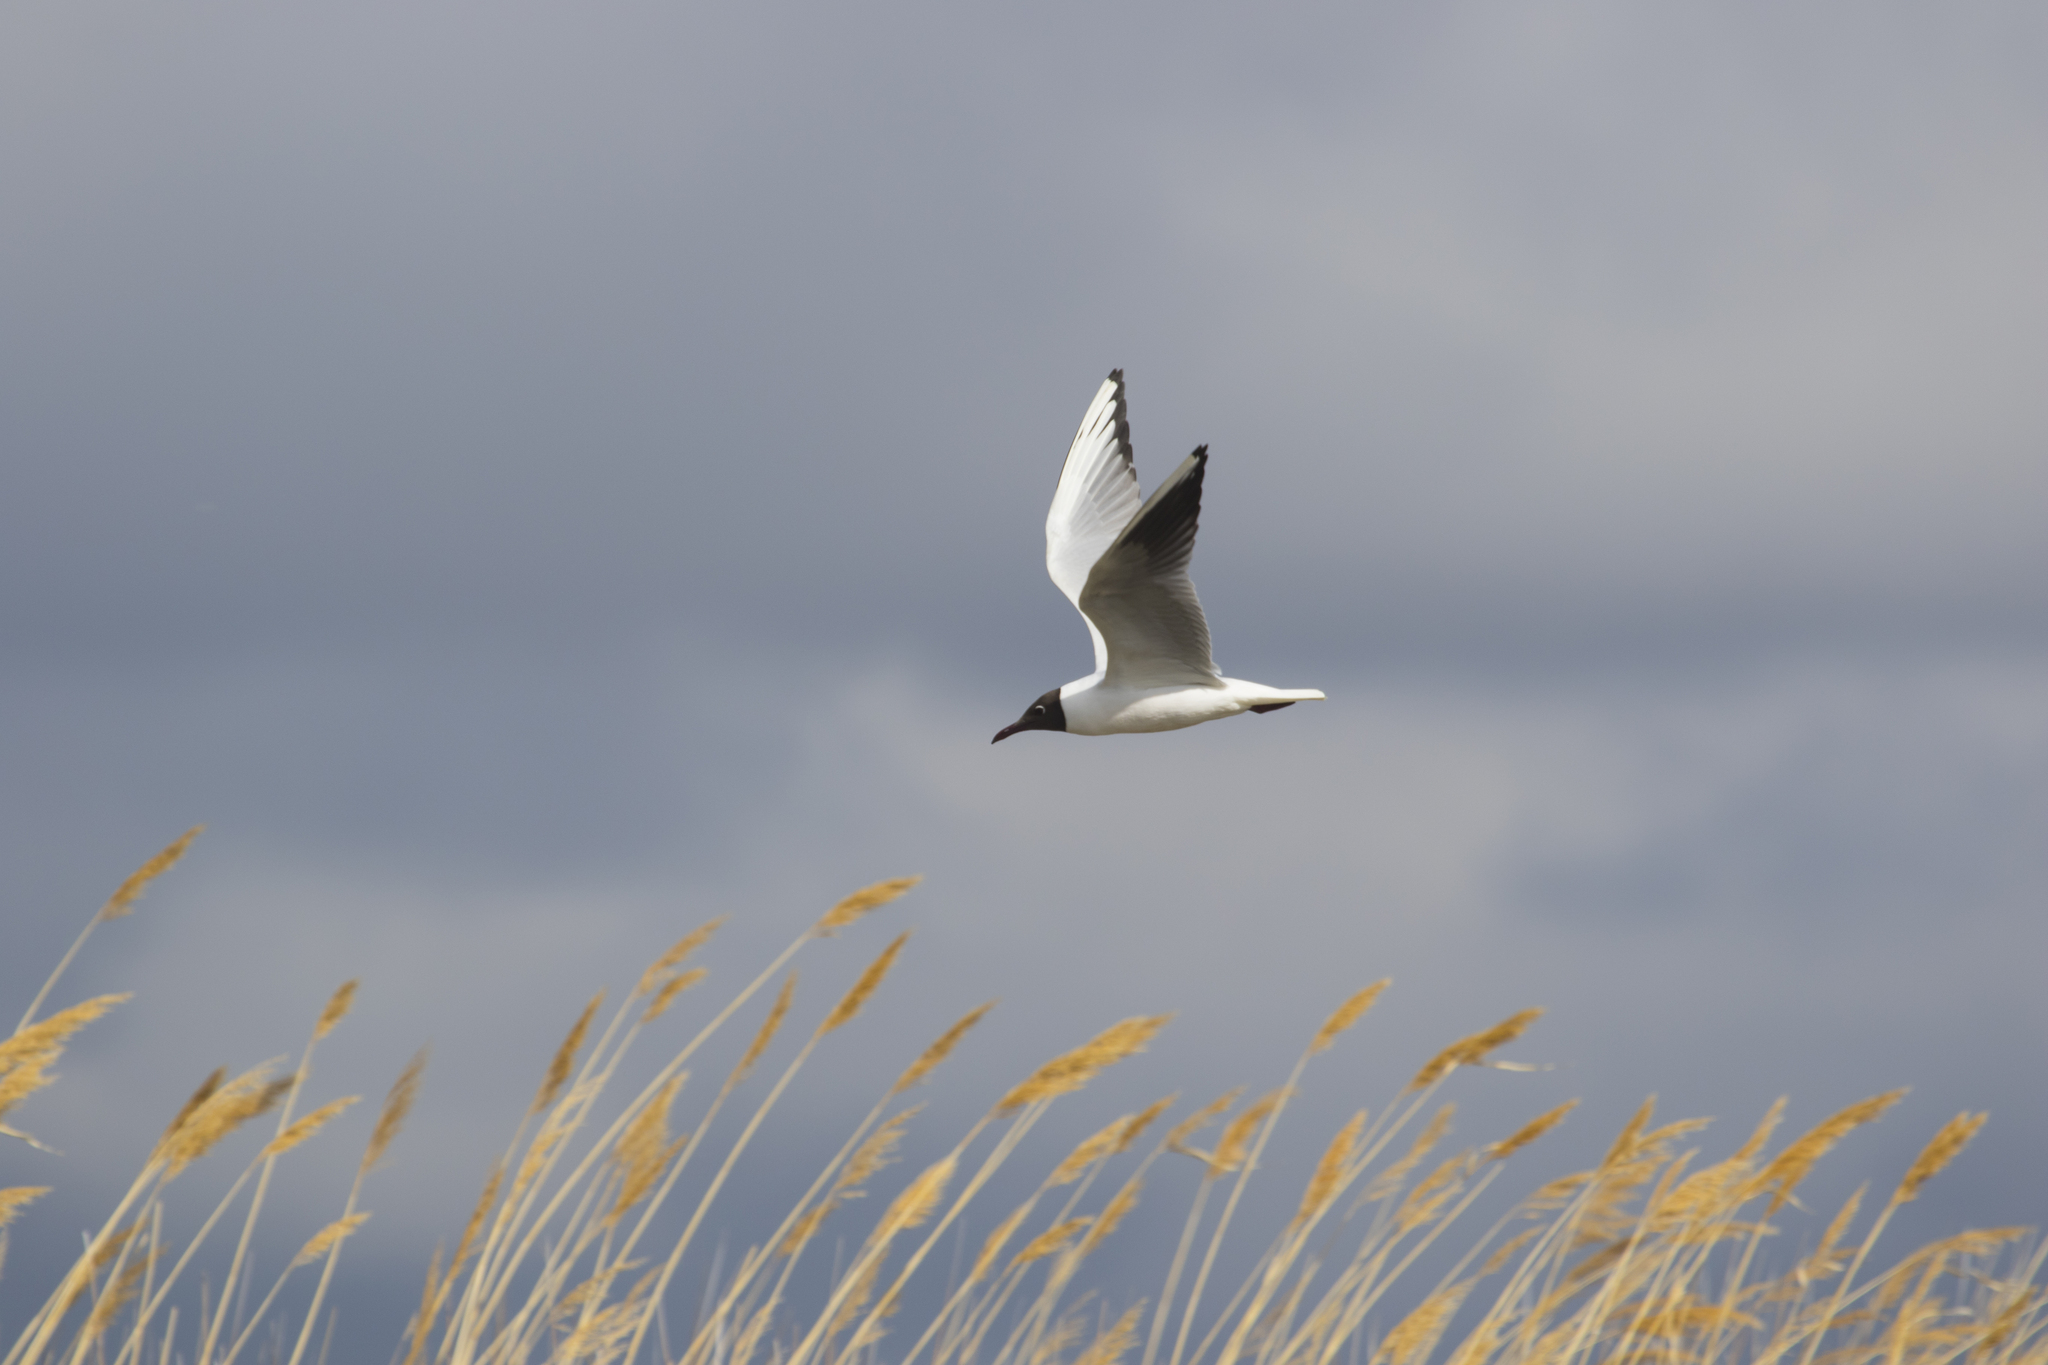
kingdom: Animalia
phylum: Chordata
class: Aves
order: Charadriiformes
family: Laridae
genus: Chroicocephalus
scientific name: Chroicocephalus ridibundus
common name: Black-headed gull
